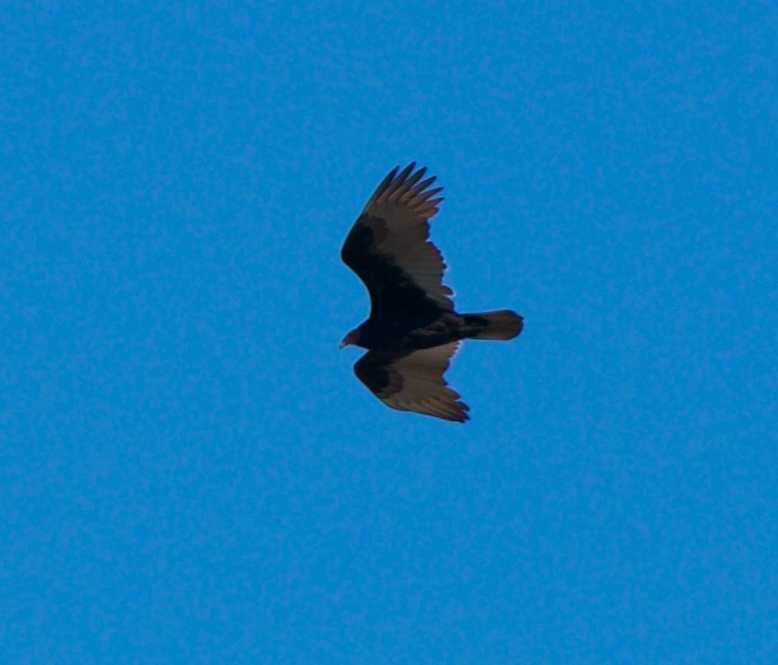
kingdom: Animalia
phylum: Chordata
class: Aves
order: Accipitriformes
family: Cathartidae
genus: Cathartes
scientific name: Cathartes aura
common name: Turkey vulture
